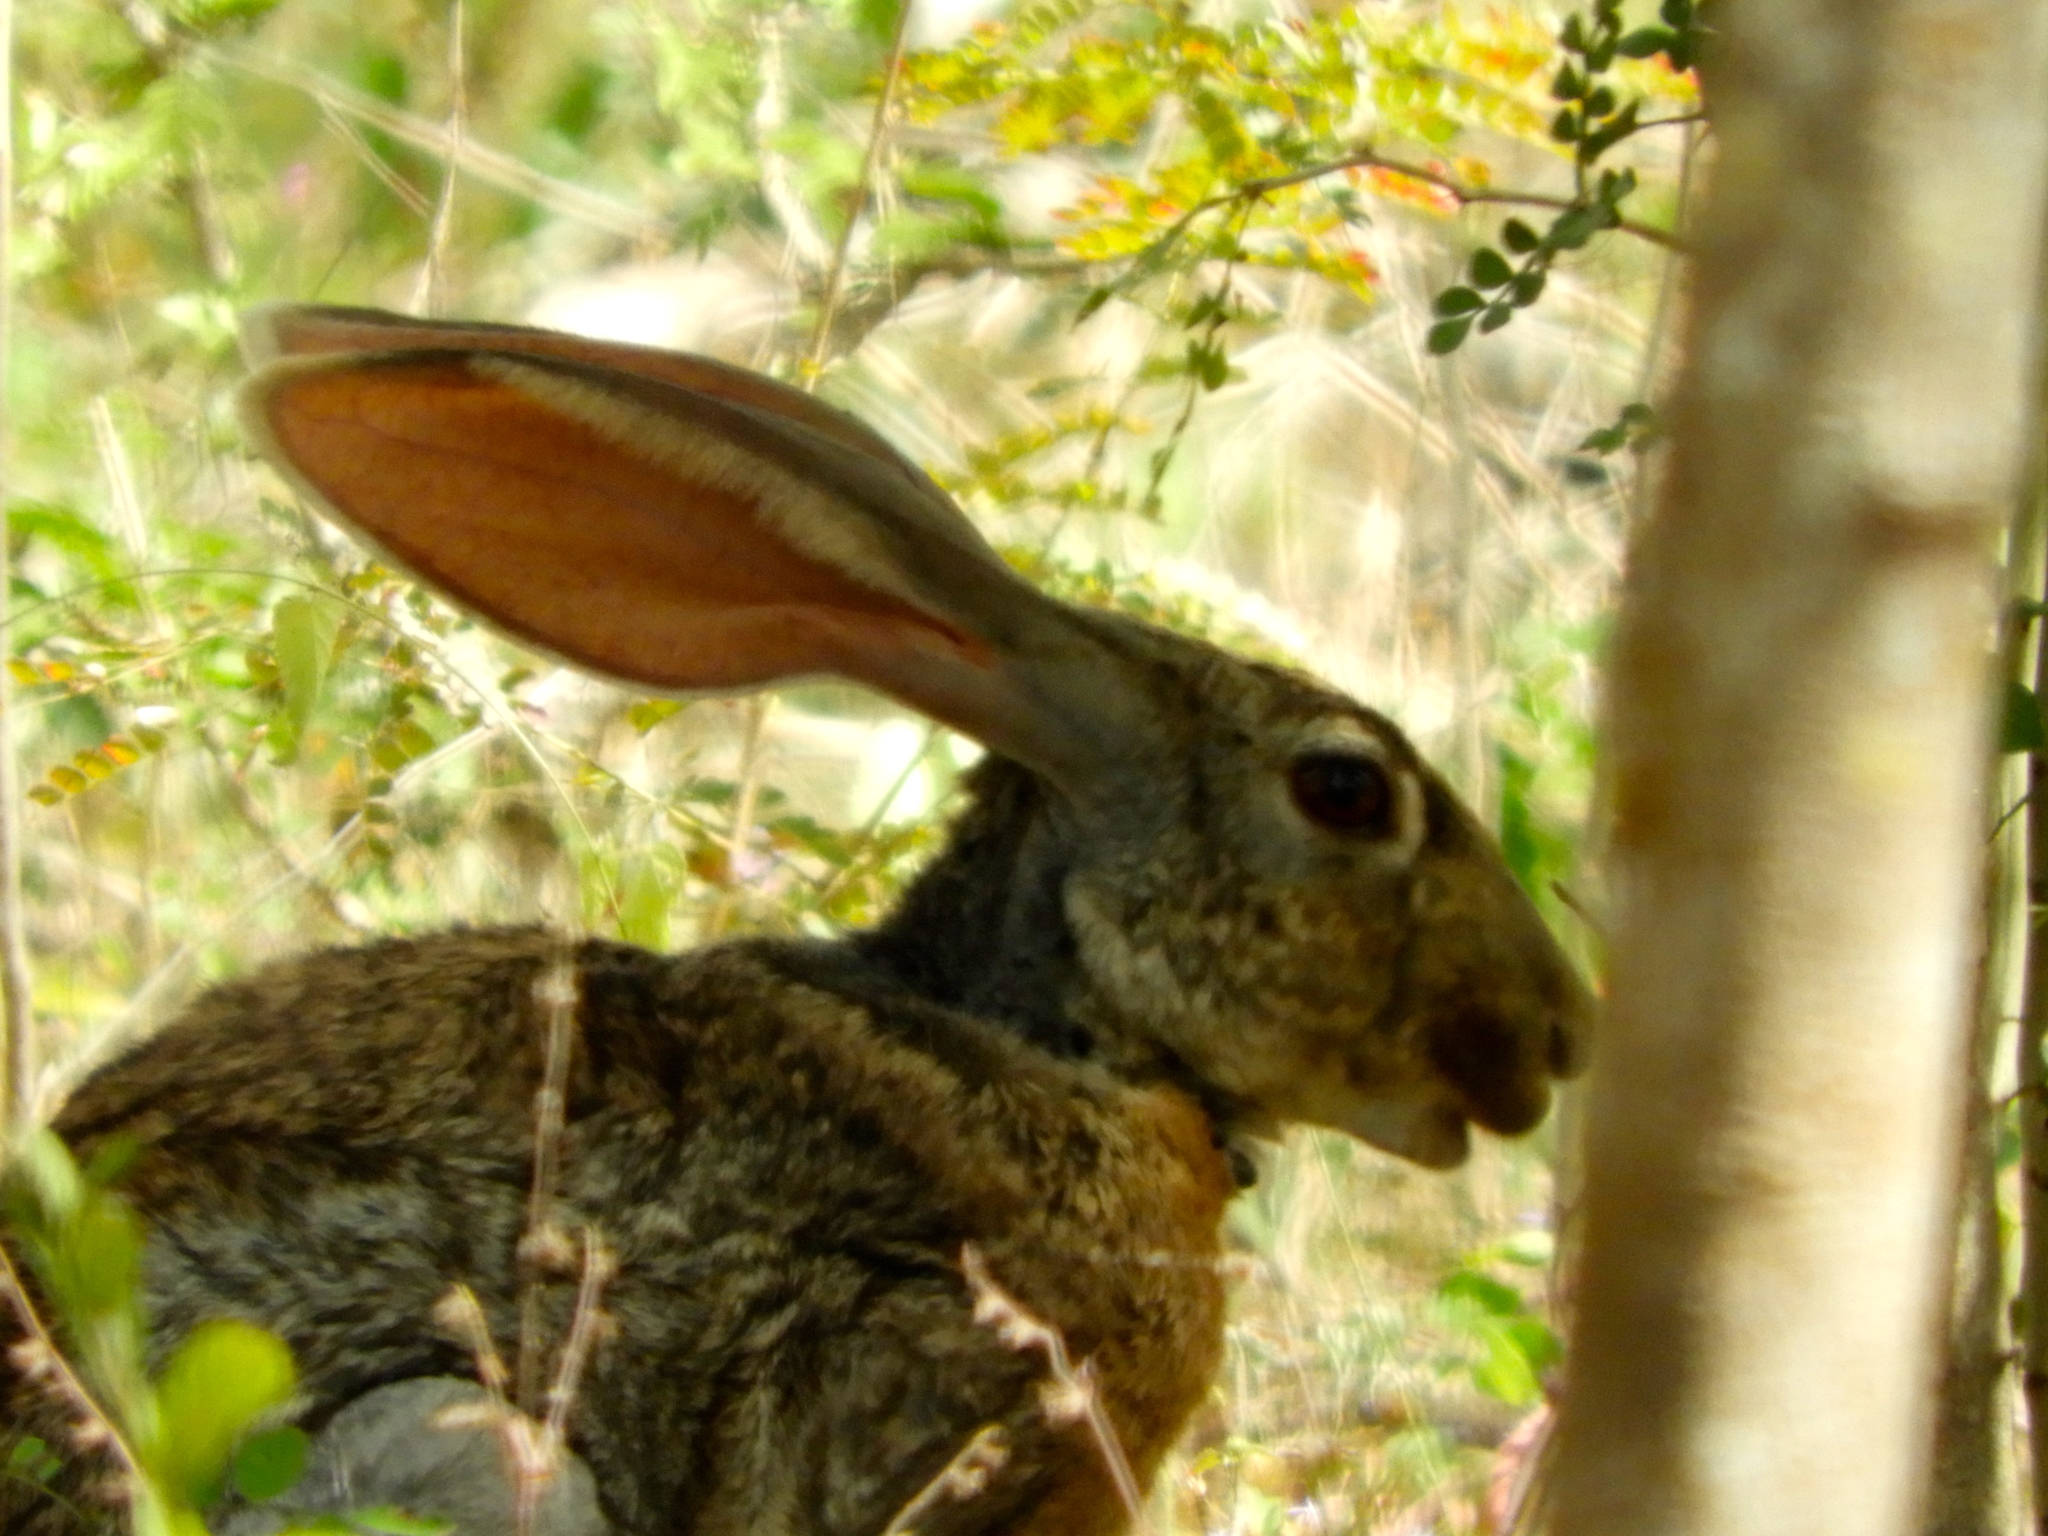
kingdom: Animalia
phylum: Chordata
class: Mammalia
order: Lagomorpha
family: Leporidae
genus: Lepus
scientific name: Lepus alleni
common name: Antelope jackrabbit
